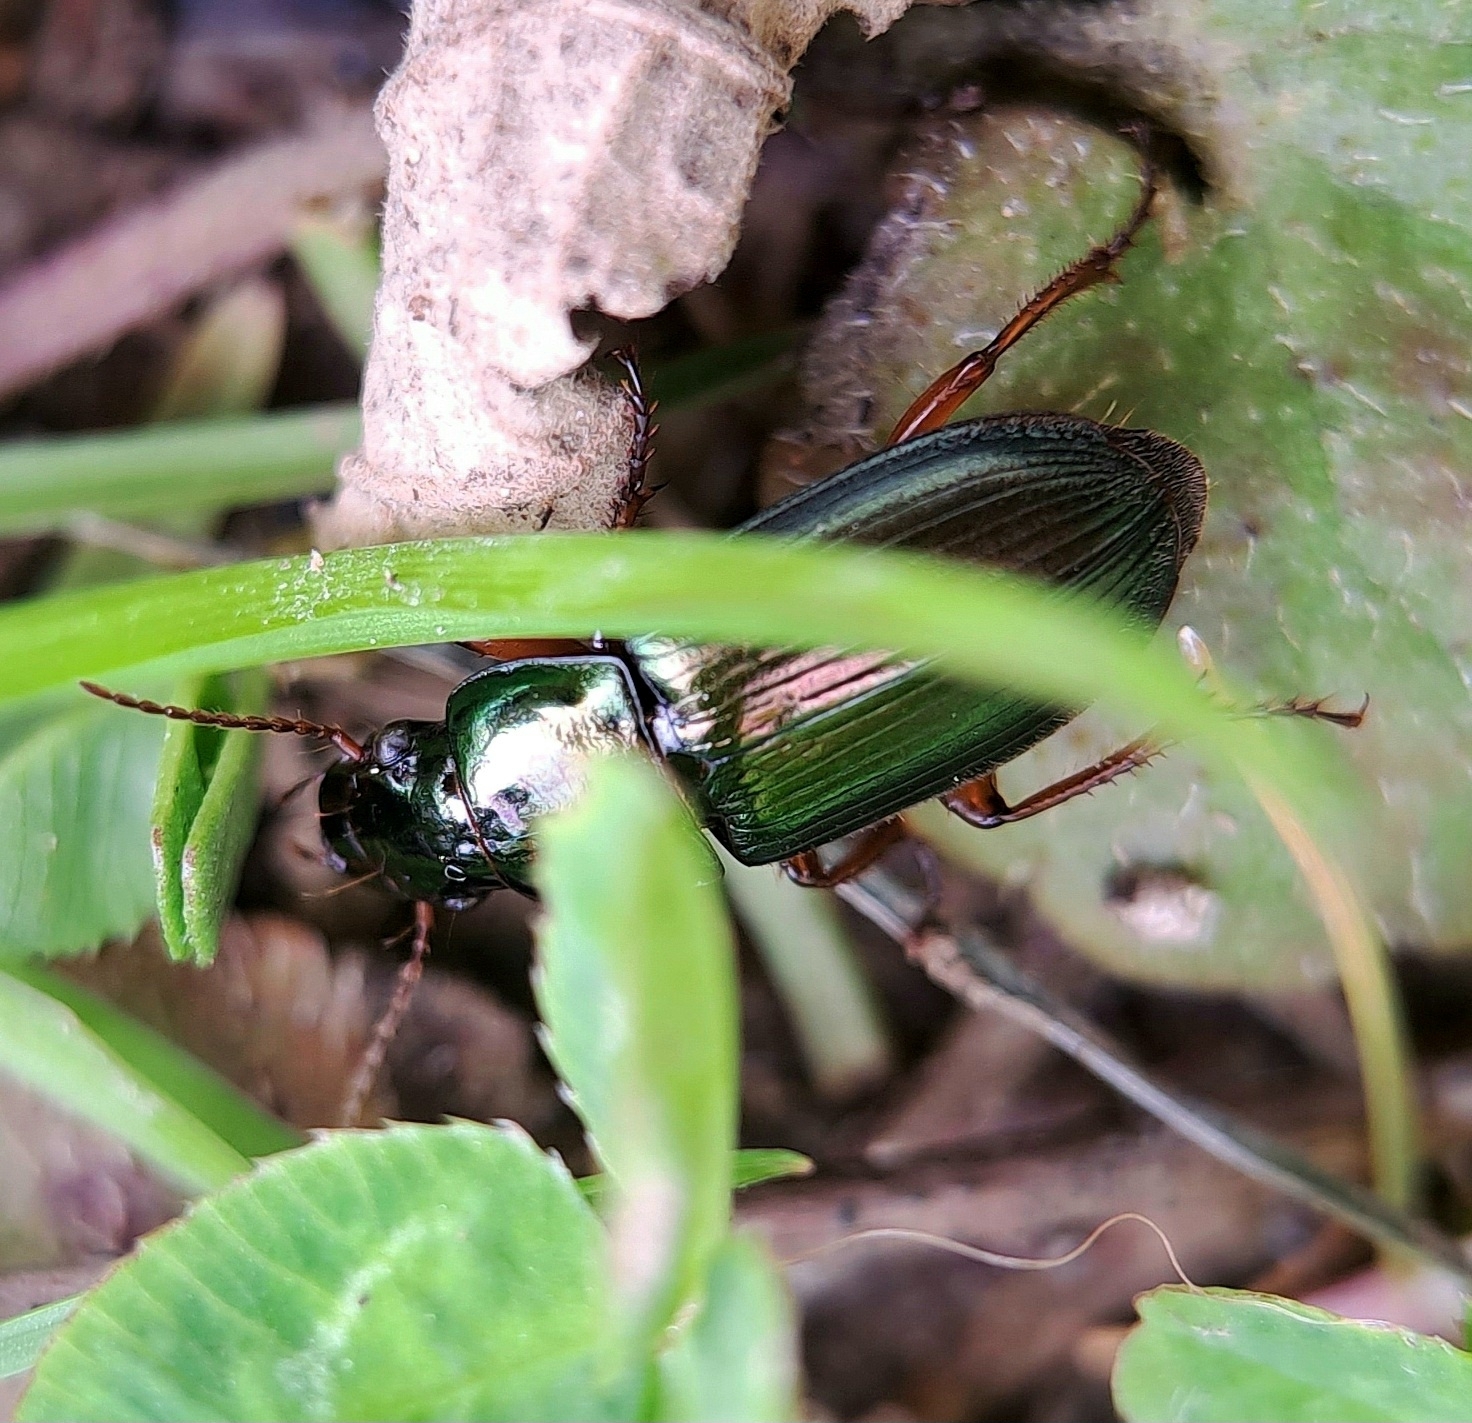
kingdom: Animalia
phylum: Arthropoda
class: Insecta
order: Coleoptera
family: Carabidae
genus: Harpalus
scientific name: Harpalus affinis
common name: Polychrome harp ground beetle
